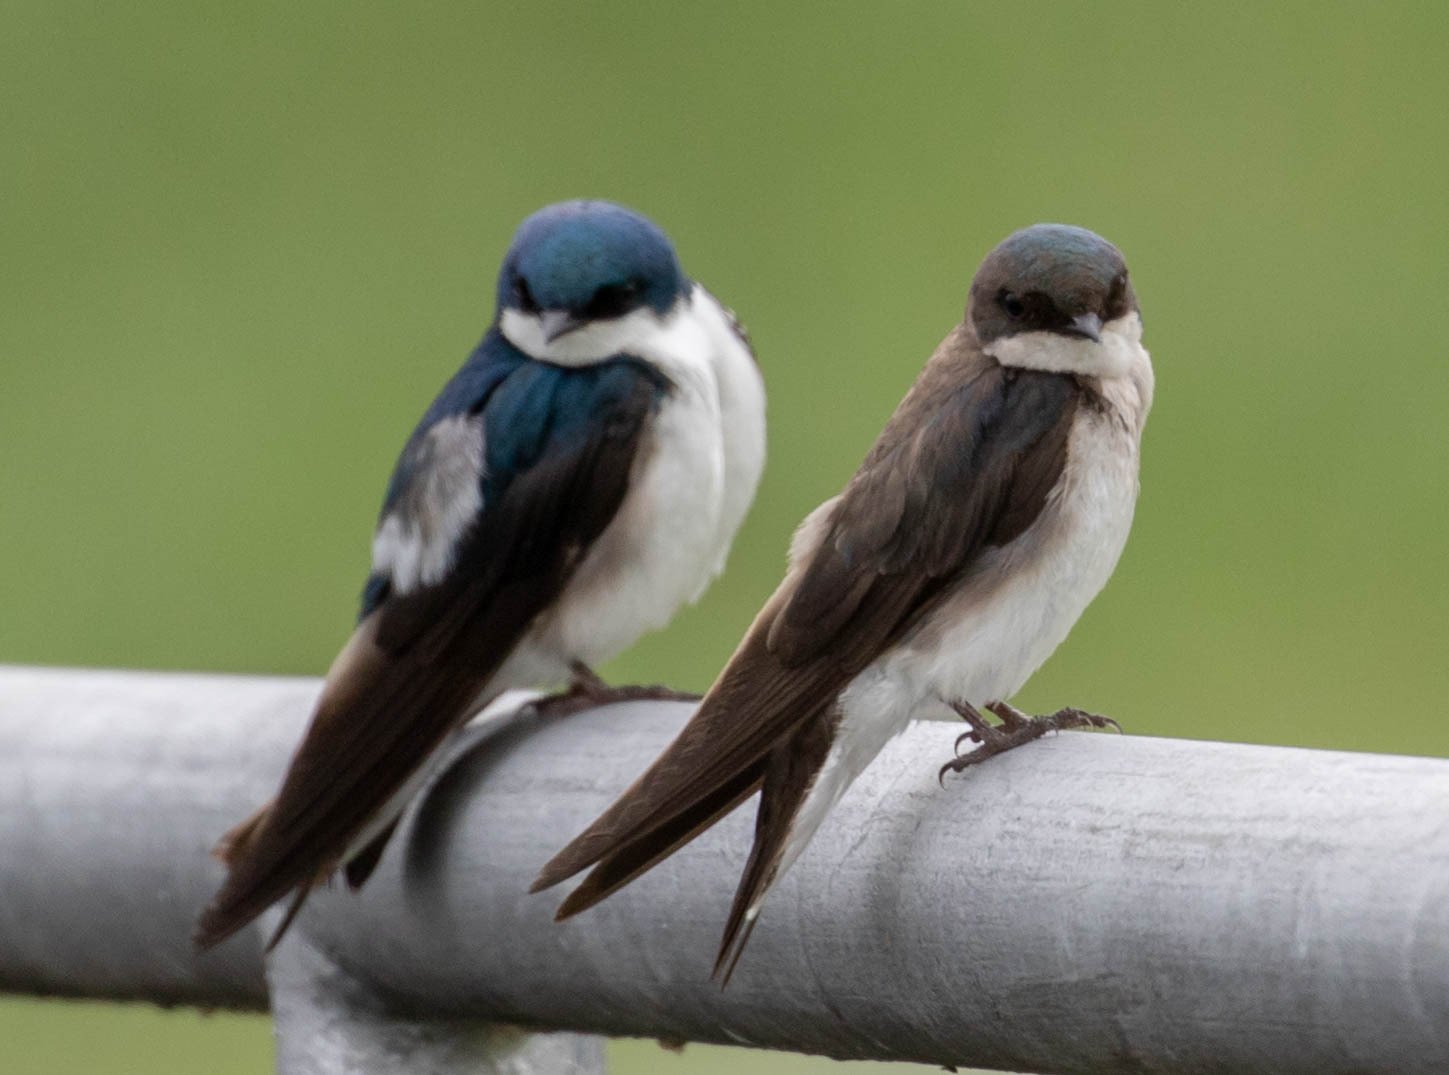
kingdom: Animalia
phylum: Chordata
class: Aves
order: Passeriformes
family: Hirundinidae
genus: Tachycineta
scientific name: Tachycineta bicolor
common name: Tree swallow
